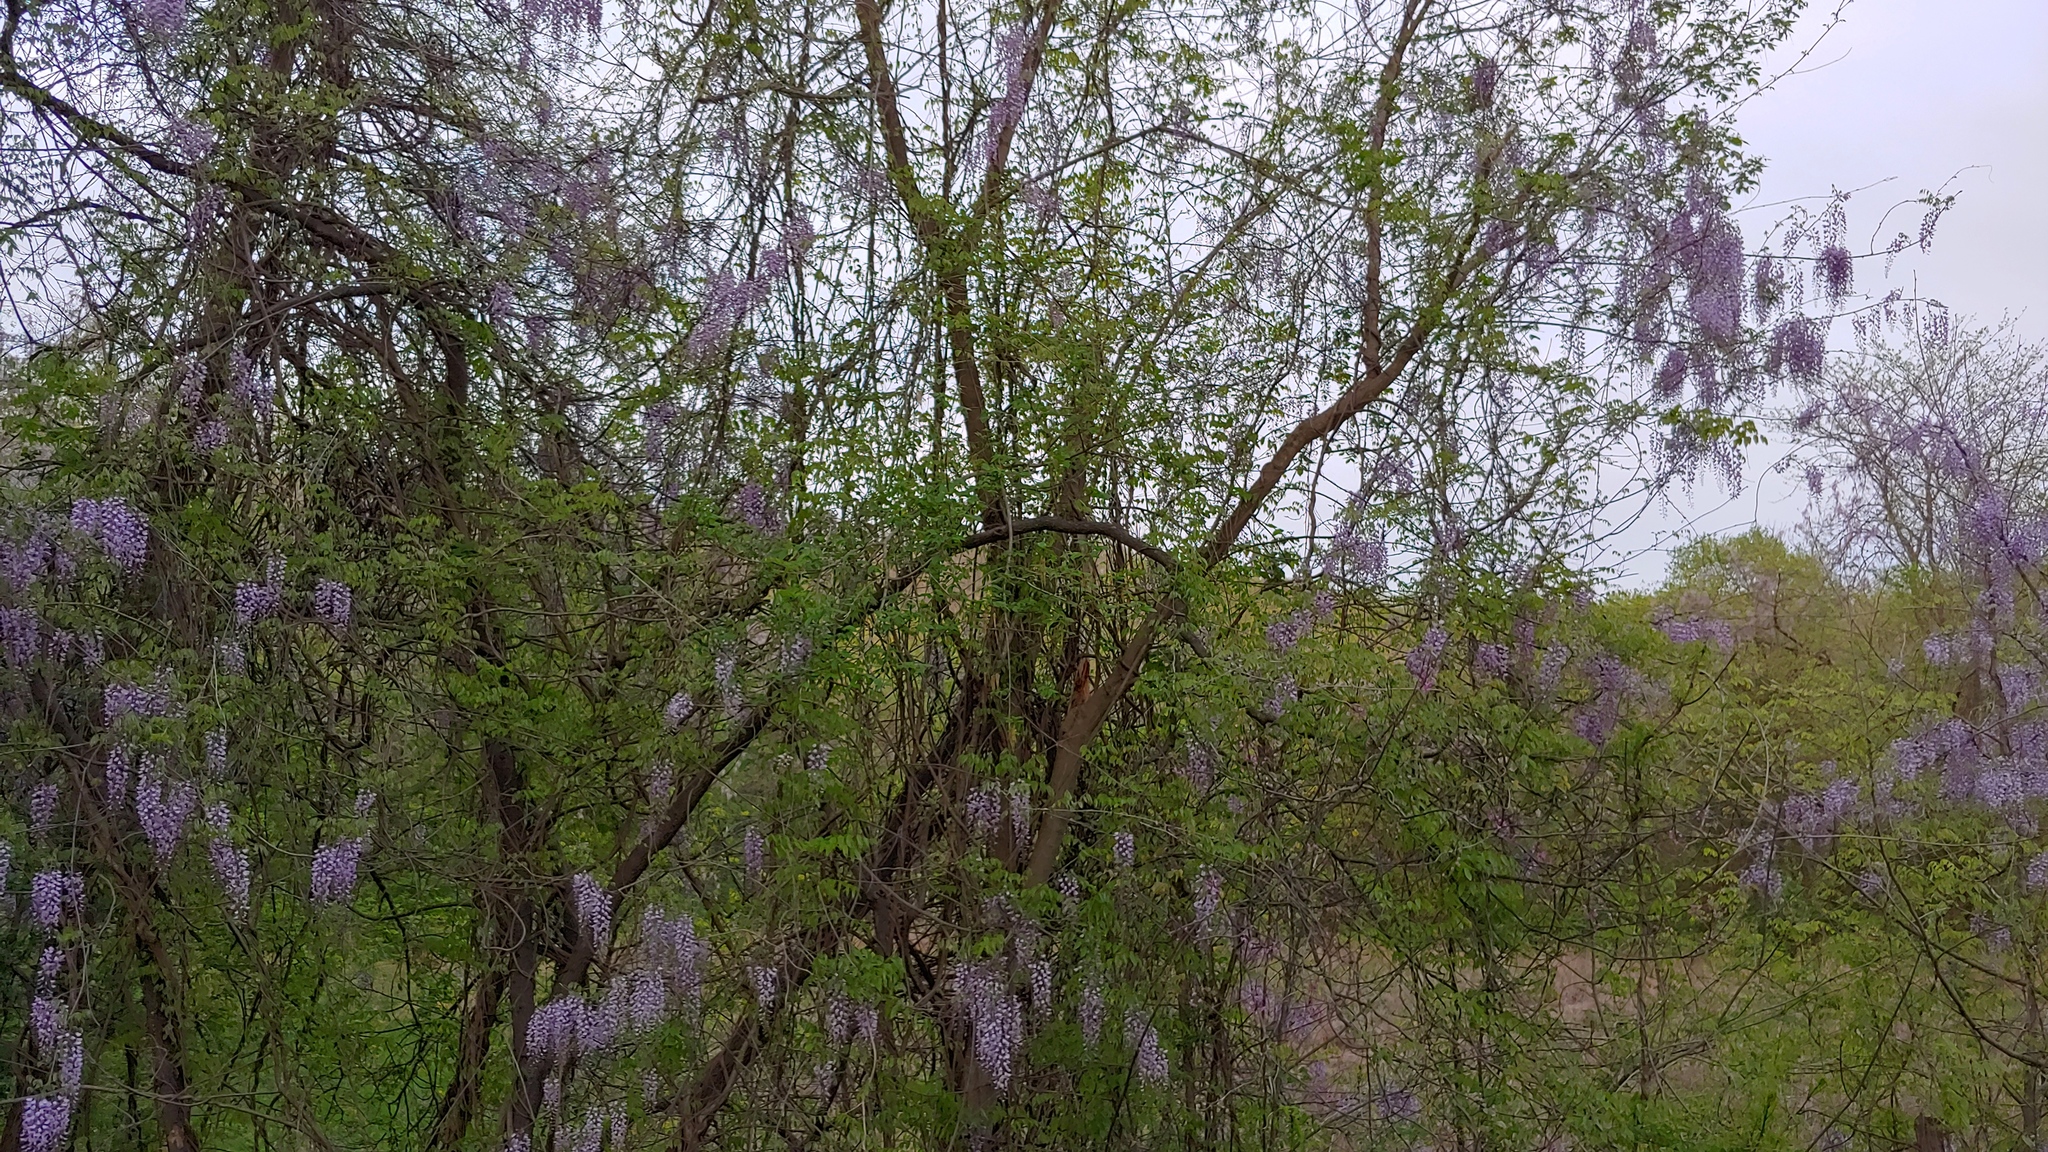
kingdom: Plantae
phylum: Tracheophyta
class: Magnoliopsida
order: Fabales
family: Fabaceae
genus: Wisteria
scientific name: Wisteria sinensis
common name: Chinese wisteria
